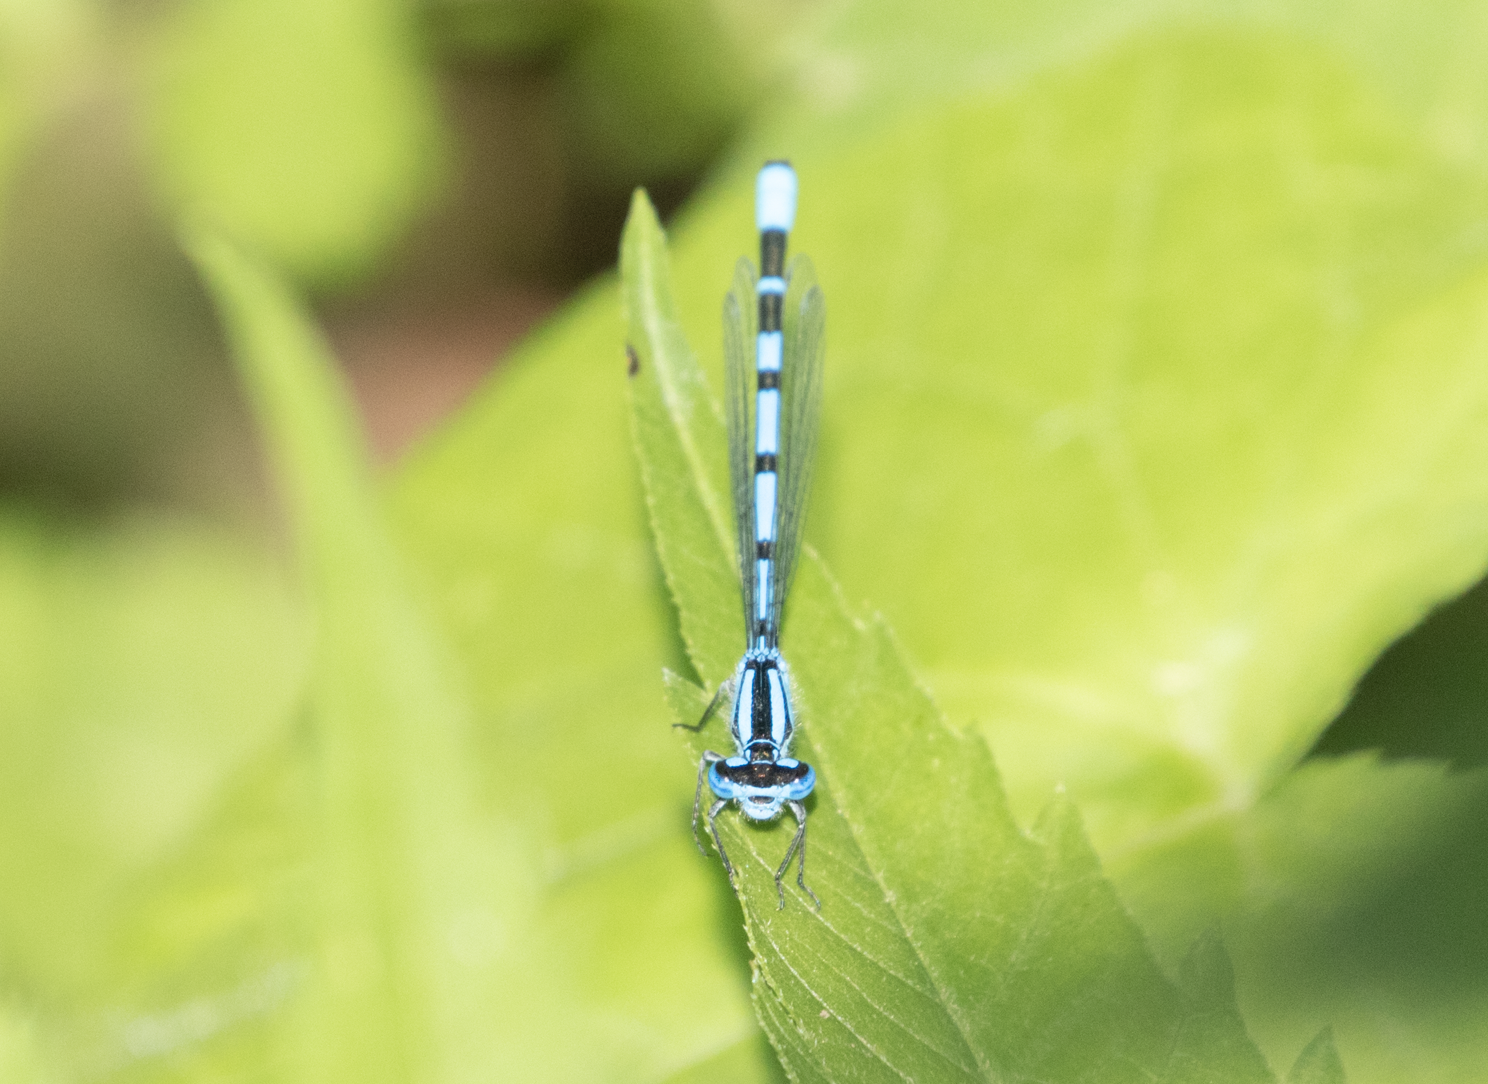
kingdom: Animalia
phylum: Arthropoda
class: Insecta
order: Odonata
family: Coenagrionidae
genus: Enallagma
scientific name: Enallagma cyathigerum
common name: Common blue damselfly
